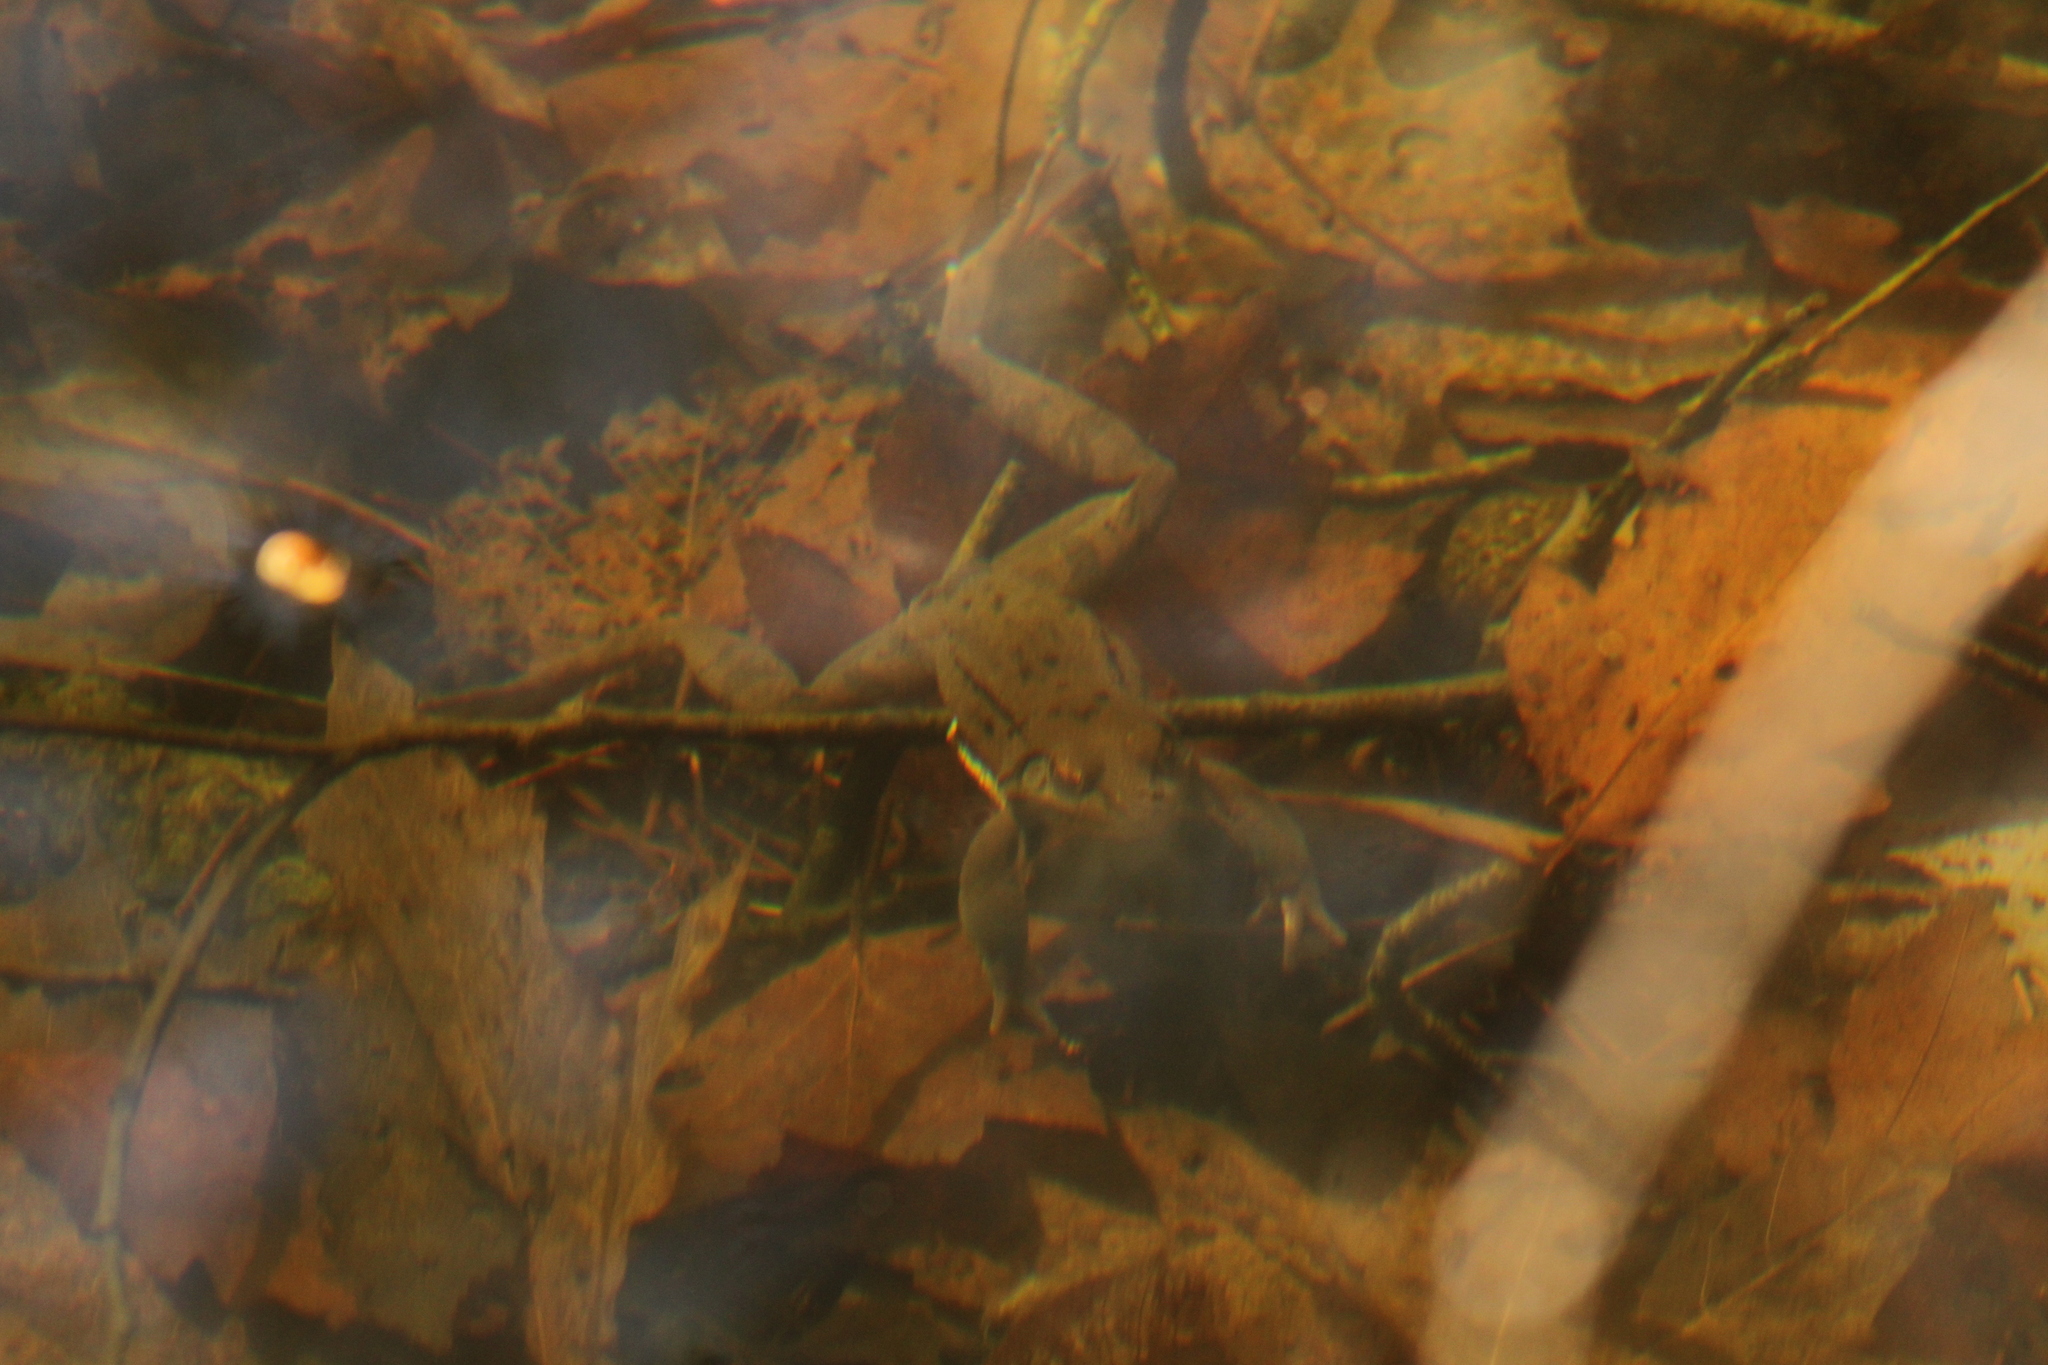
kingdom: Animalia
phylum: Chordata
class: Amphibia
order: Anura
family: Ranidae
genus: Rana
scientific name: Rana dalmatina
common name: Agile frog
